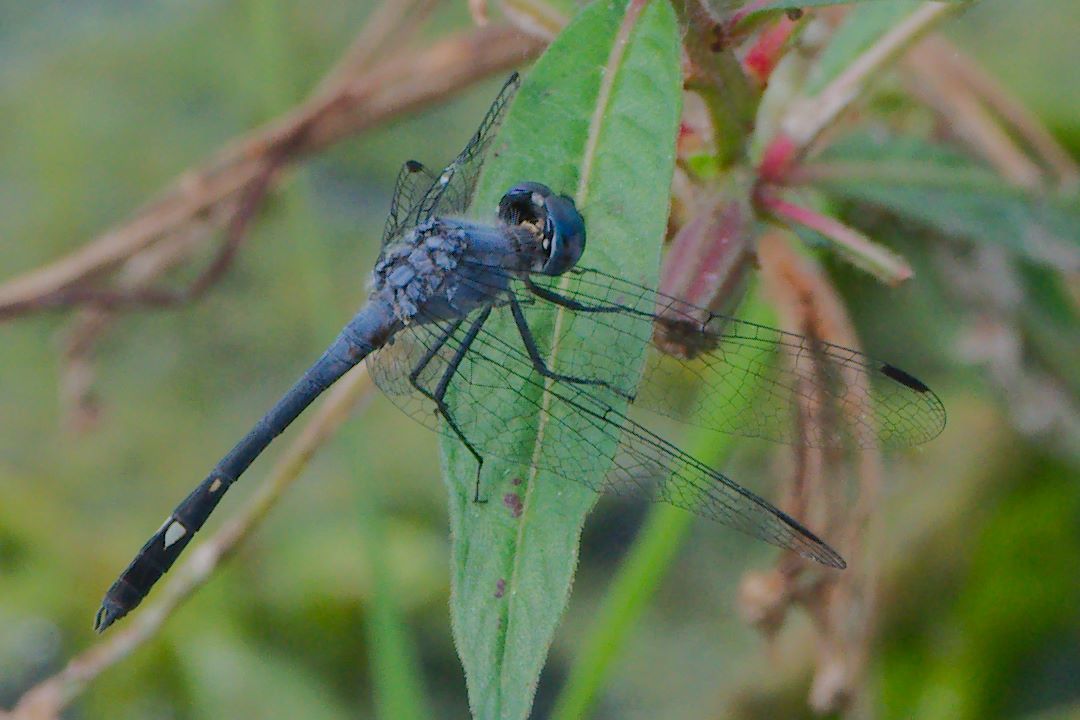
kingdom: Animalia
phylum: Arthropoda
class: Insecta
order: Odonata
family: Libellulidae
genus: Micrathyria
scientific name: Micrathyria aequalis
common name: Spot-tailed dasher
